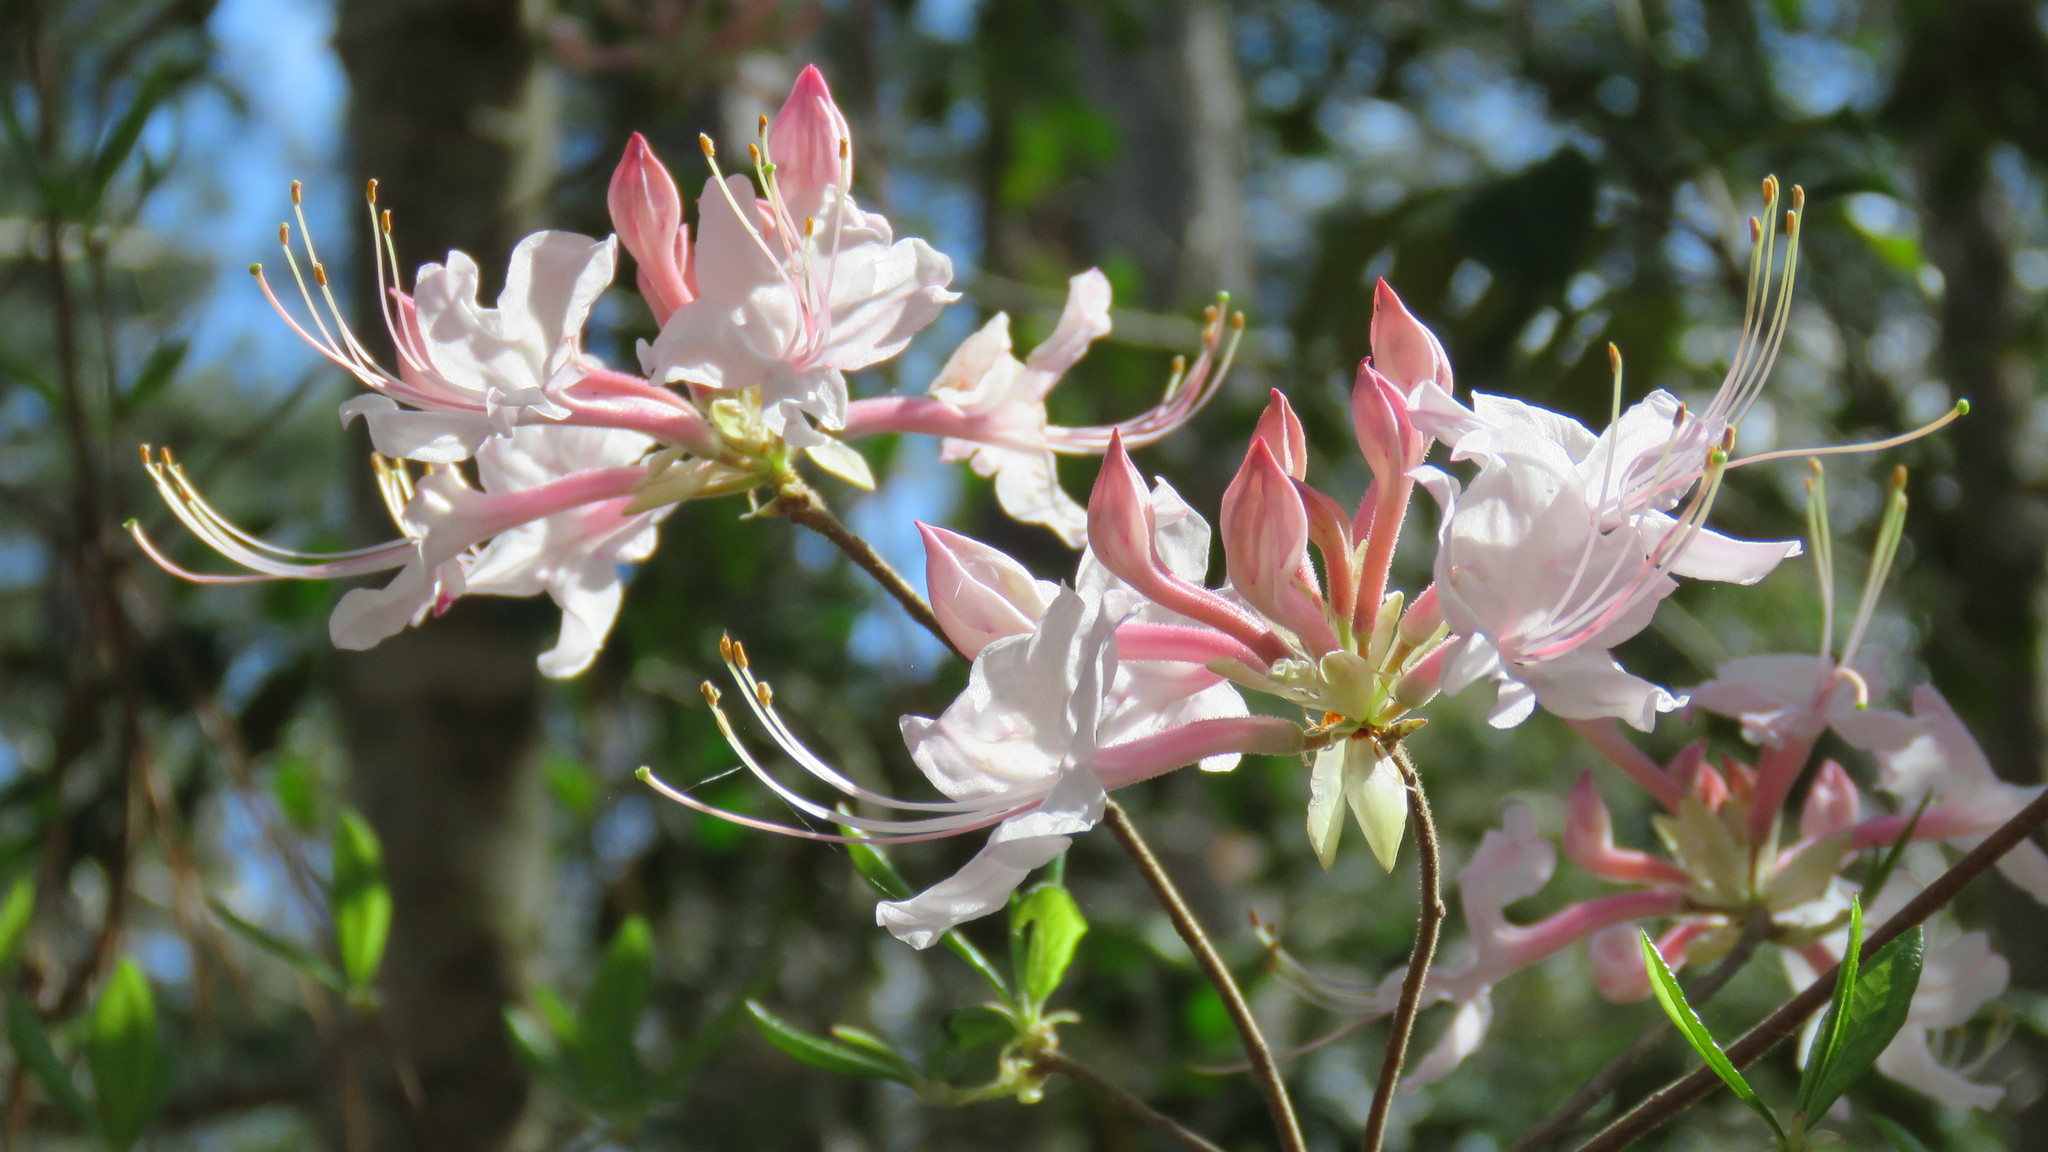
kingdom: Plantae
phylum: Tracheophyta
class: Magnoliopsida
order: Ericales
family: Ericaceae
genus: Rhododendron
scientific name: Rhododendron canescens
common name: Mountain azalea
